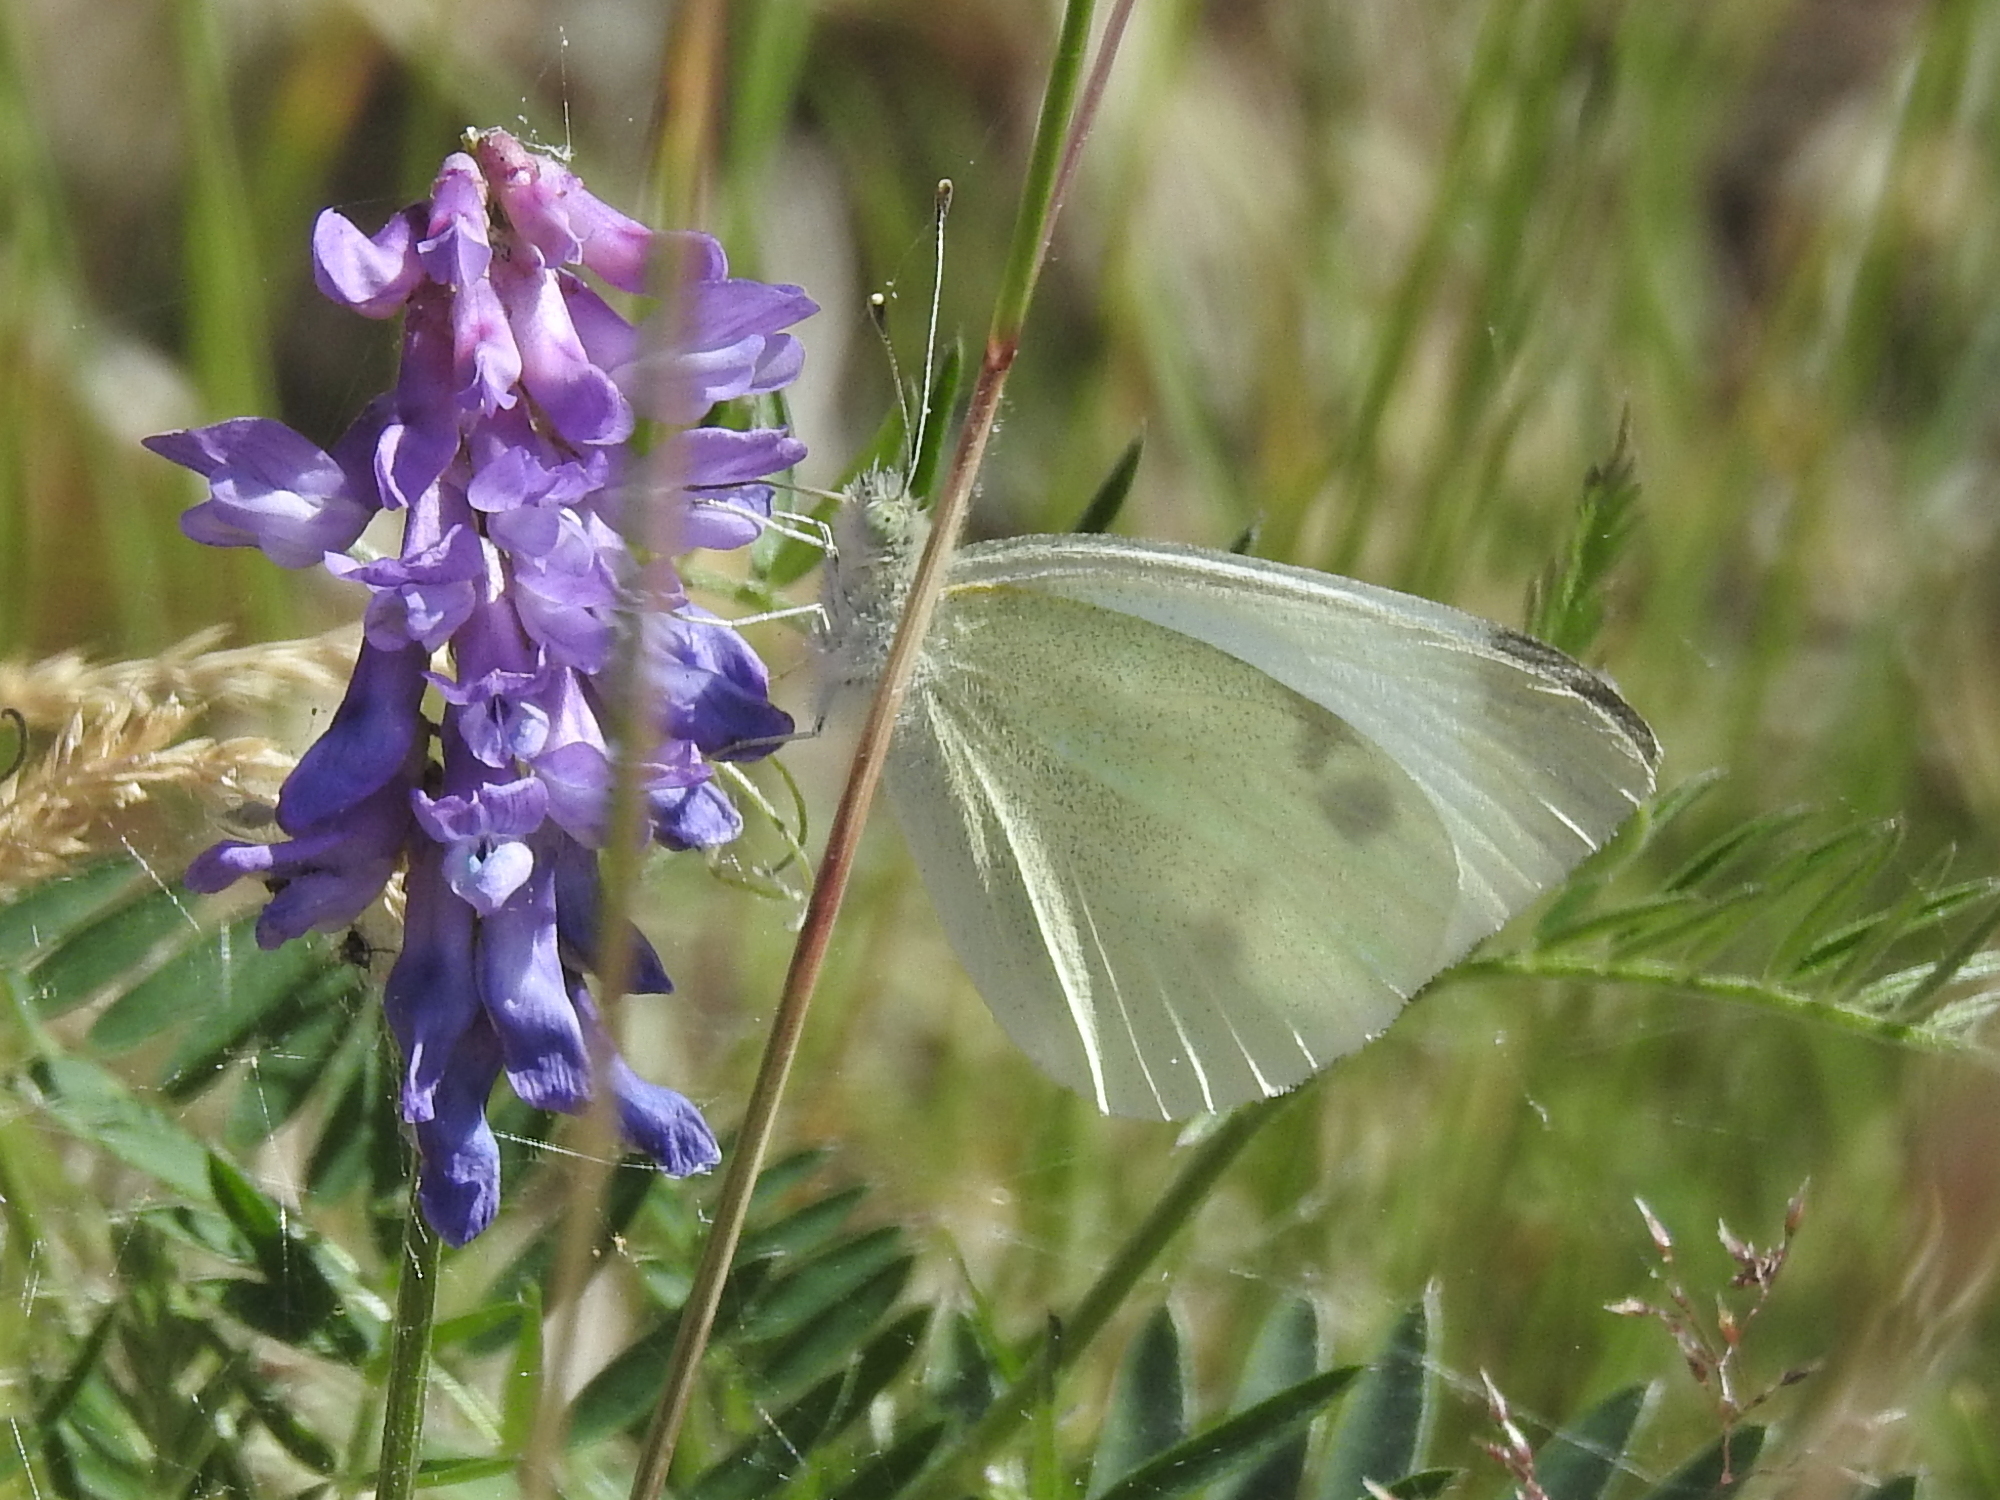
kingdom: Animalia
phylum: Arthropoda
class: Insecta
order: Lepidoptera
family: Pieridae
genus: Pieris
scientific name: Pieris rapae
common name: Small white
